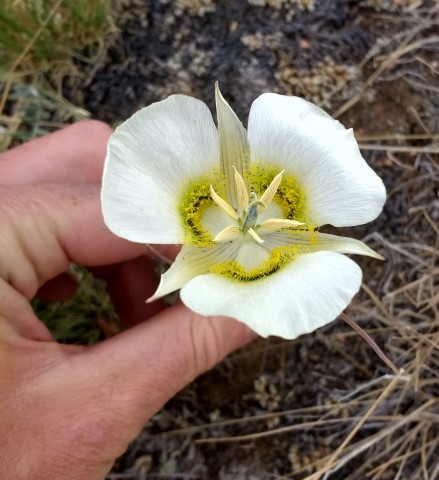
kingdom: Plantae
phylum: Tracheophyta
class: Liliopsida
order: Liliales
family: Liliaceae
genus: Calochortus
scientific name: Calochortus gunnisonii
